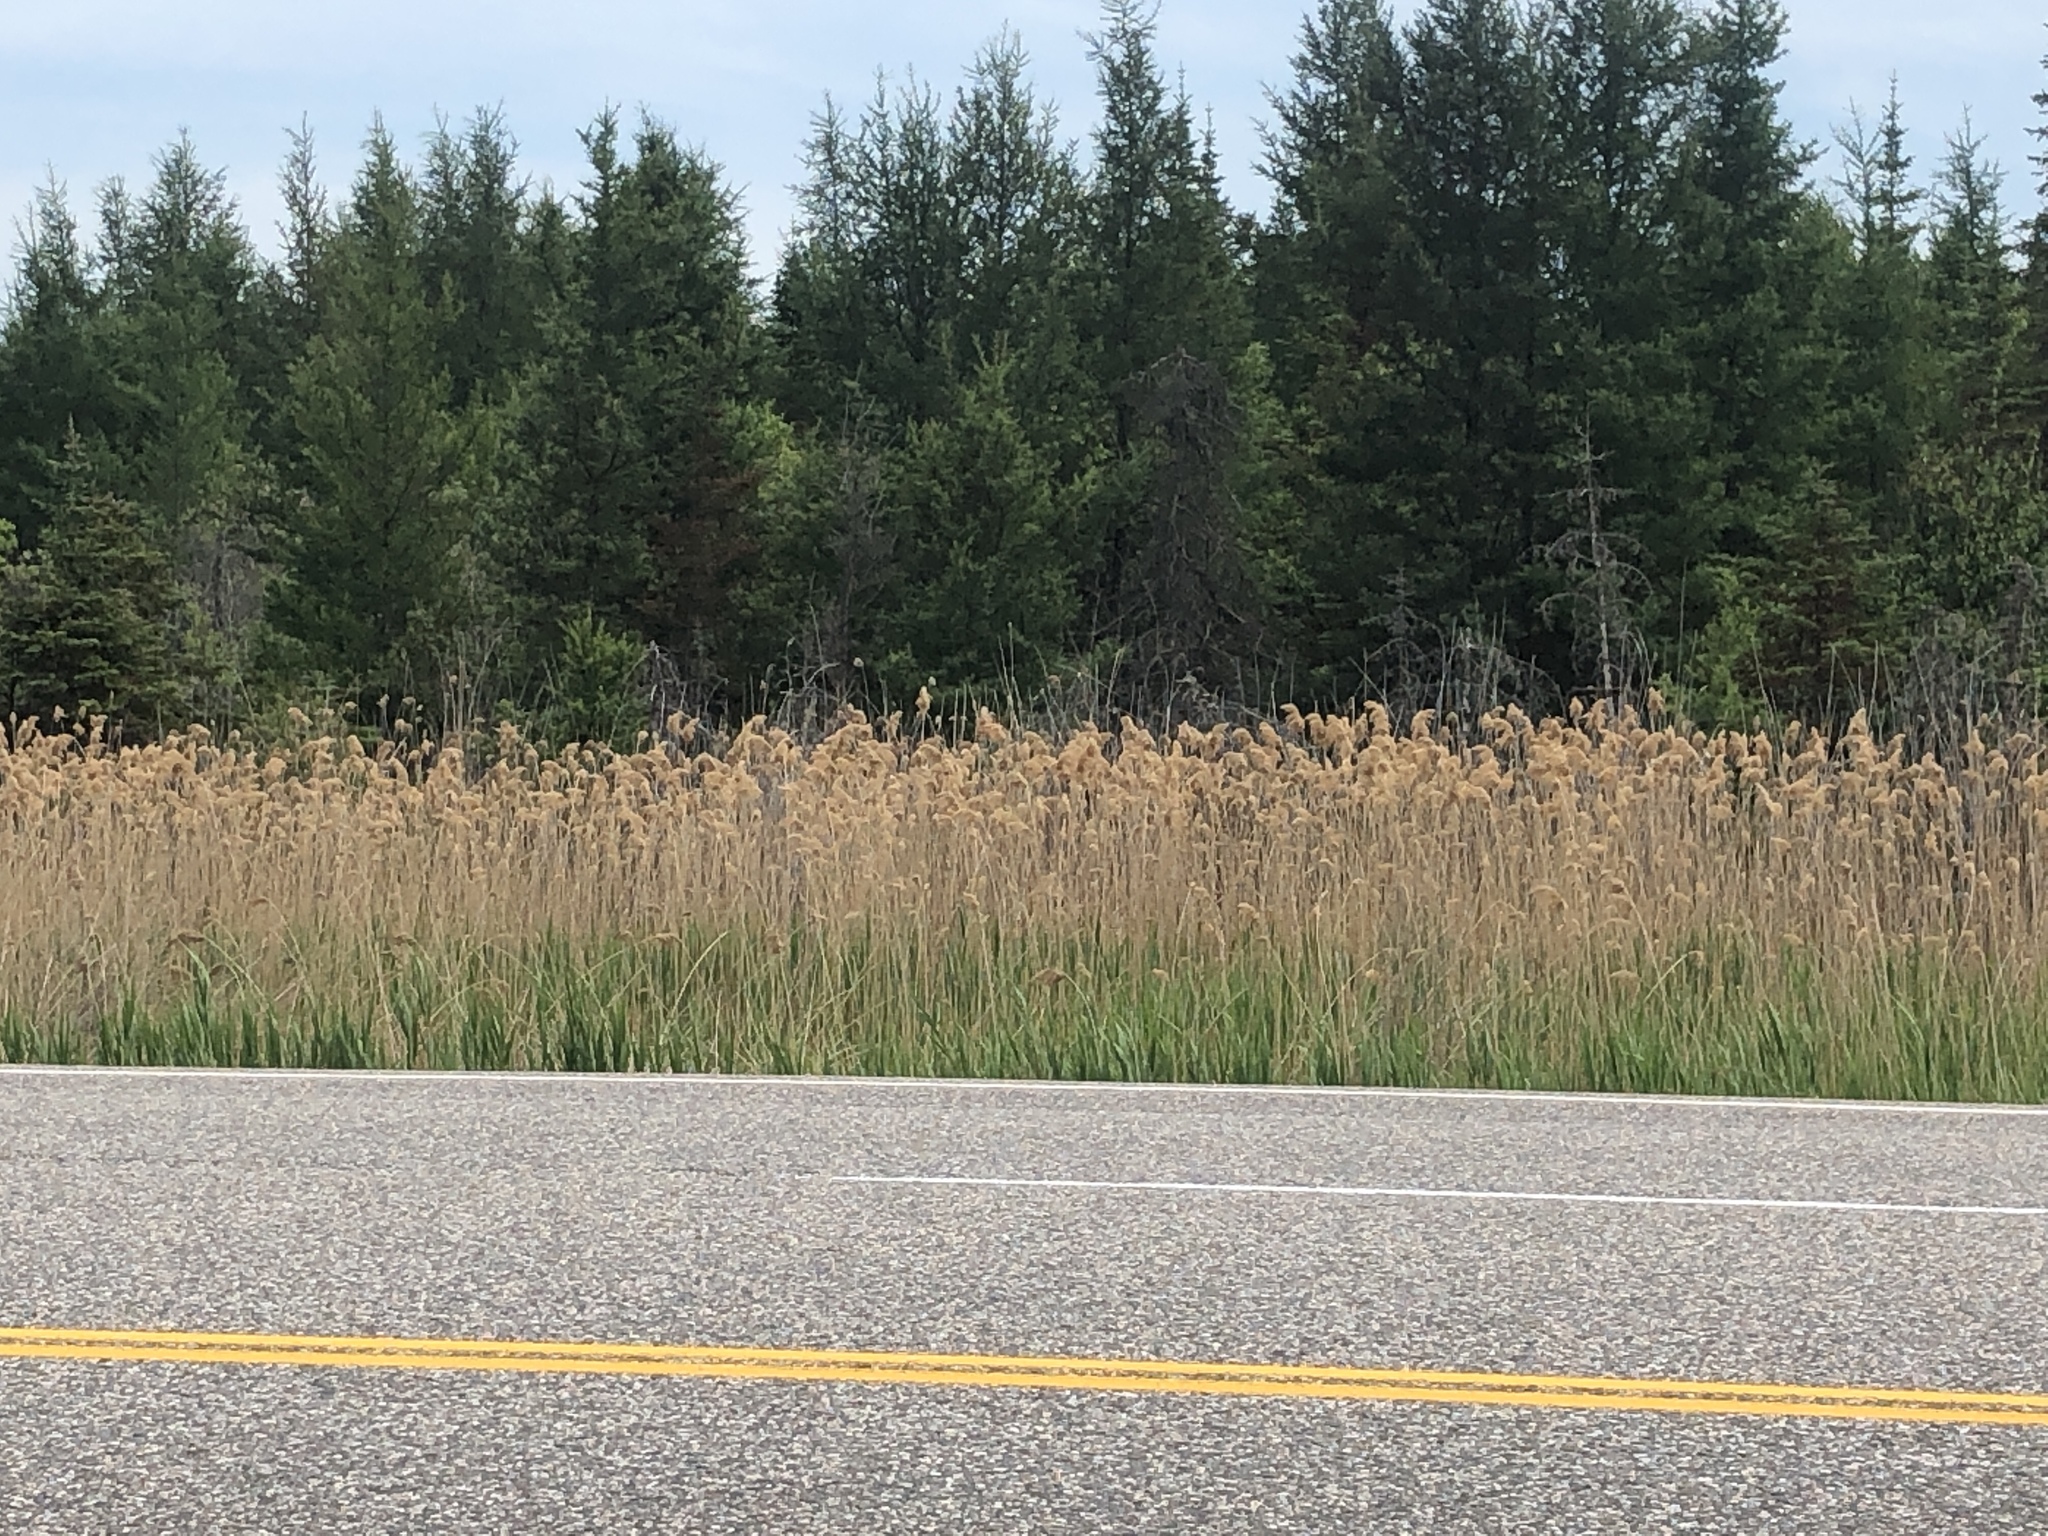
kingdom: Plantae
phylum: Tracheophyta
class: Liliopsida
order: Poales
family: Poaceae
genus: Phragmites
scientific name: Phragmites australis
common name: Common reed
